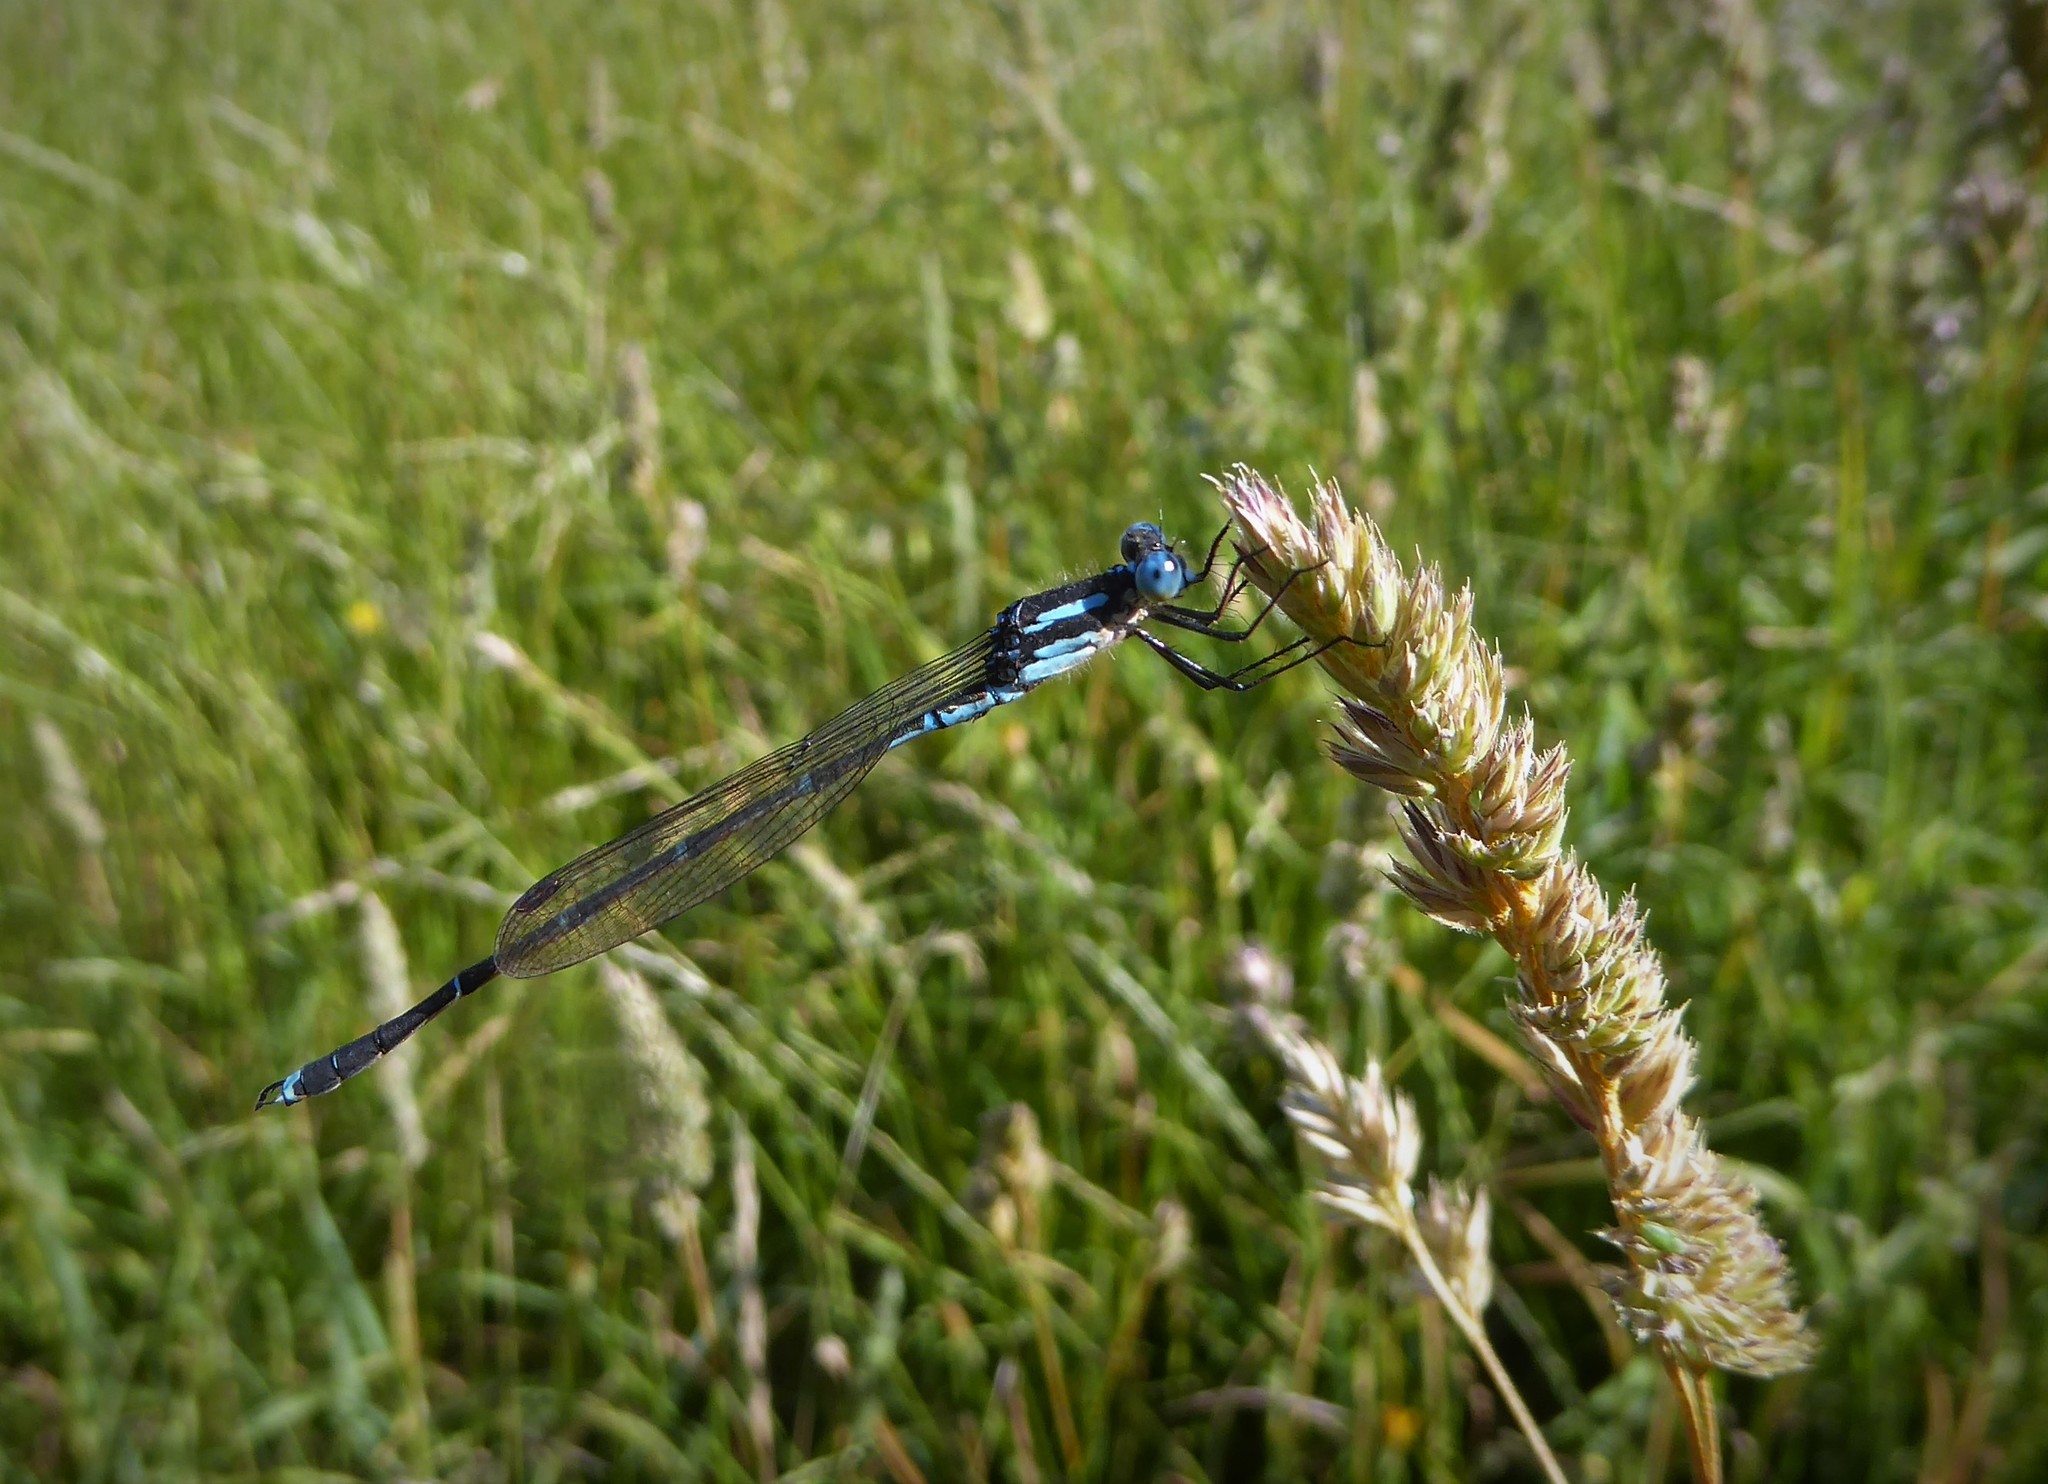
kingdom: Animalia
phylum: Arthropoda
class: Insecta
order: Odonata
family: Lestidae
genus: Austrolestes
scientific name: Austrolestes colensonis
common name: Blue damselfly
